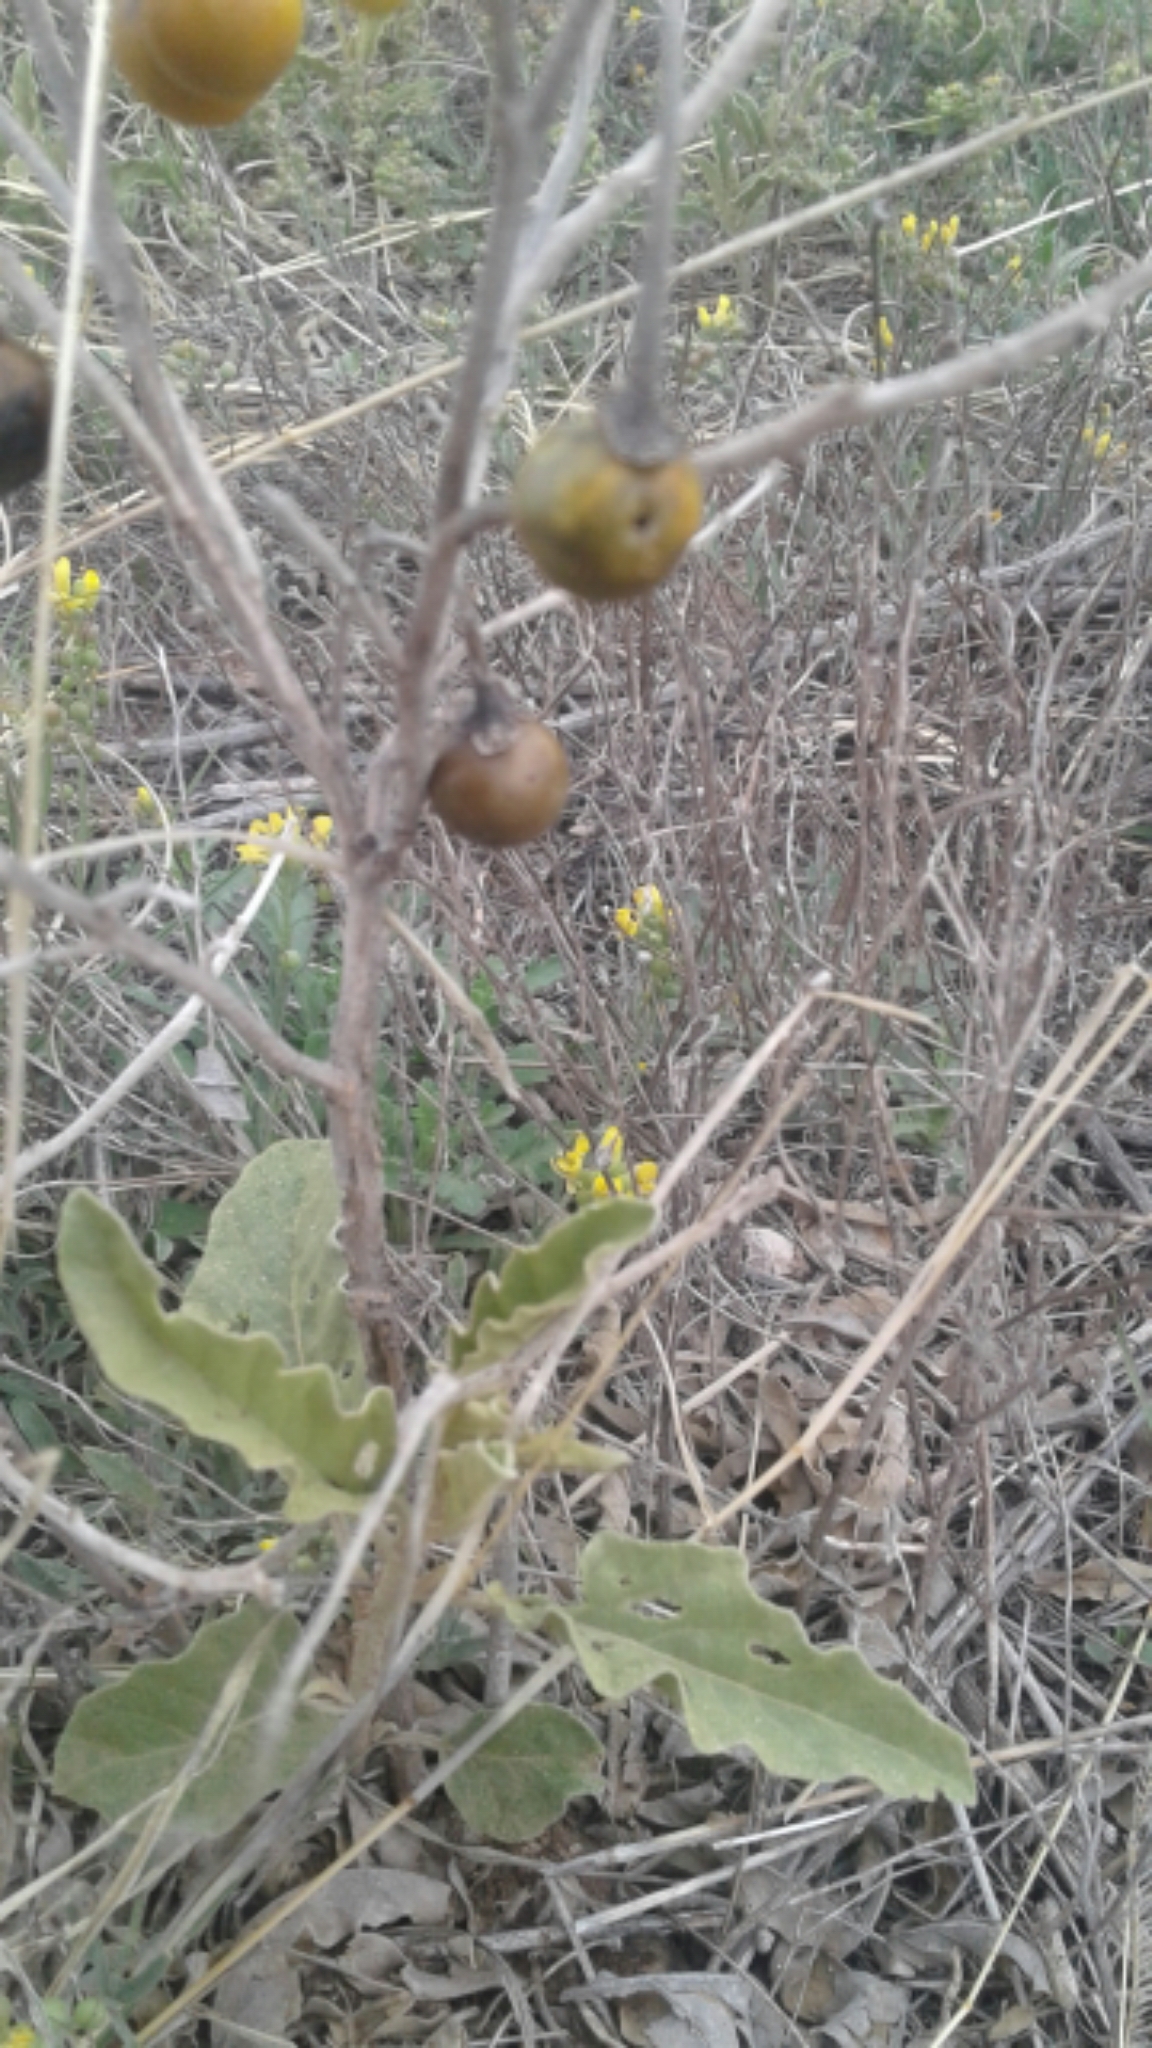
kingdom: Plantae
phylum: Tracheophyta
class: Magnoliopsida
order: Solanales
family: Solanaceae
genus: Solanum
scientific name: Solanum elaeagnifolium
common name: Silverleaf nightshade
